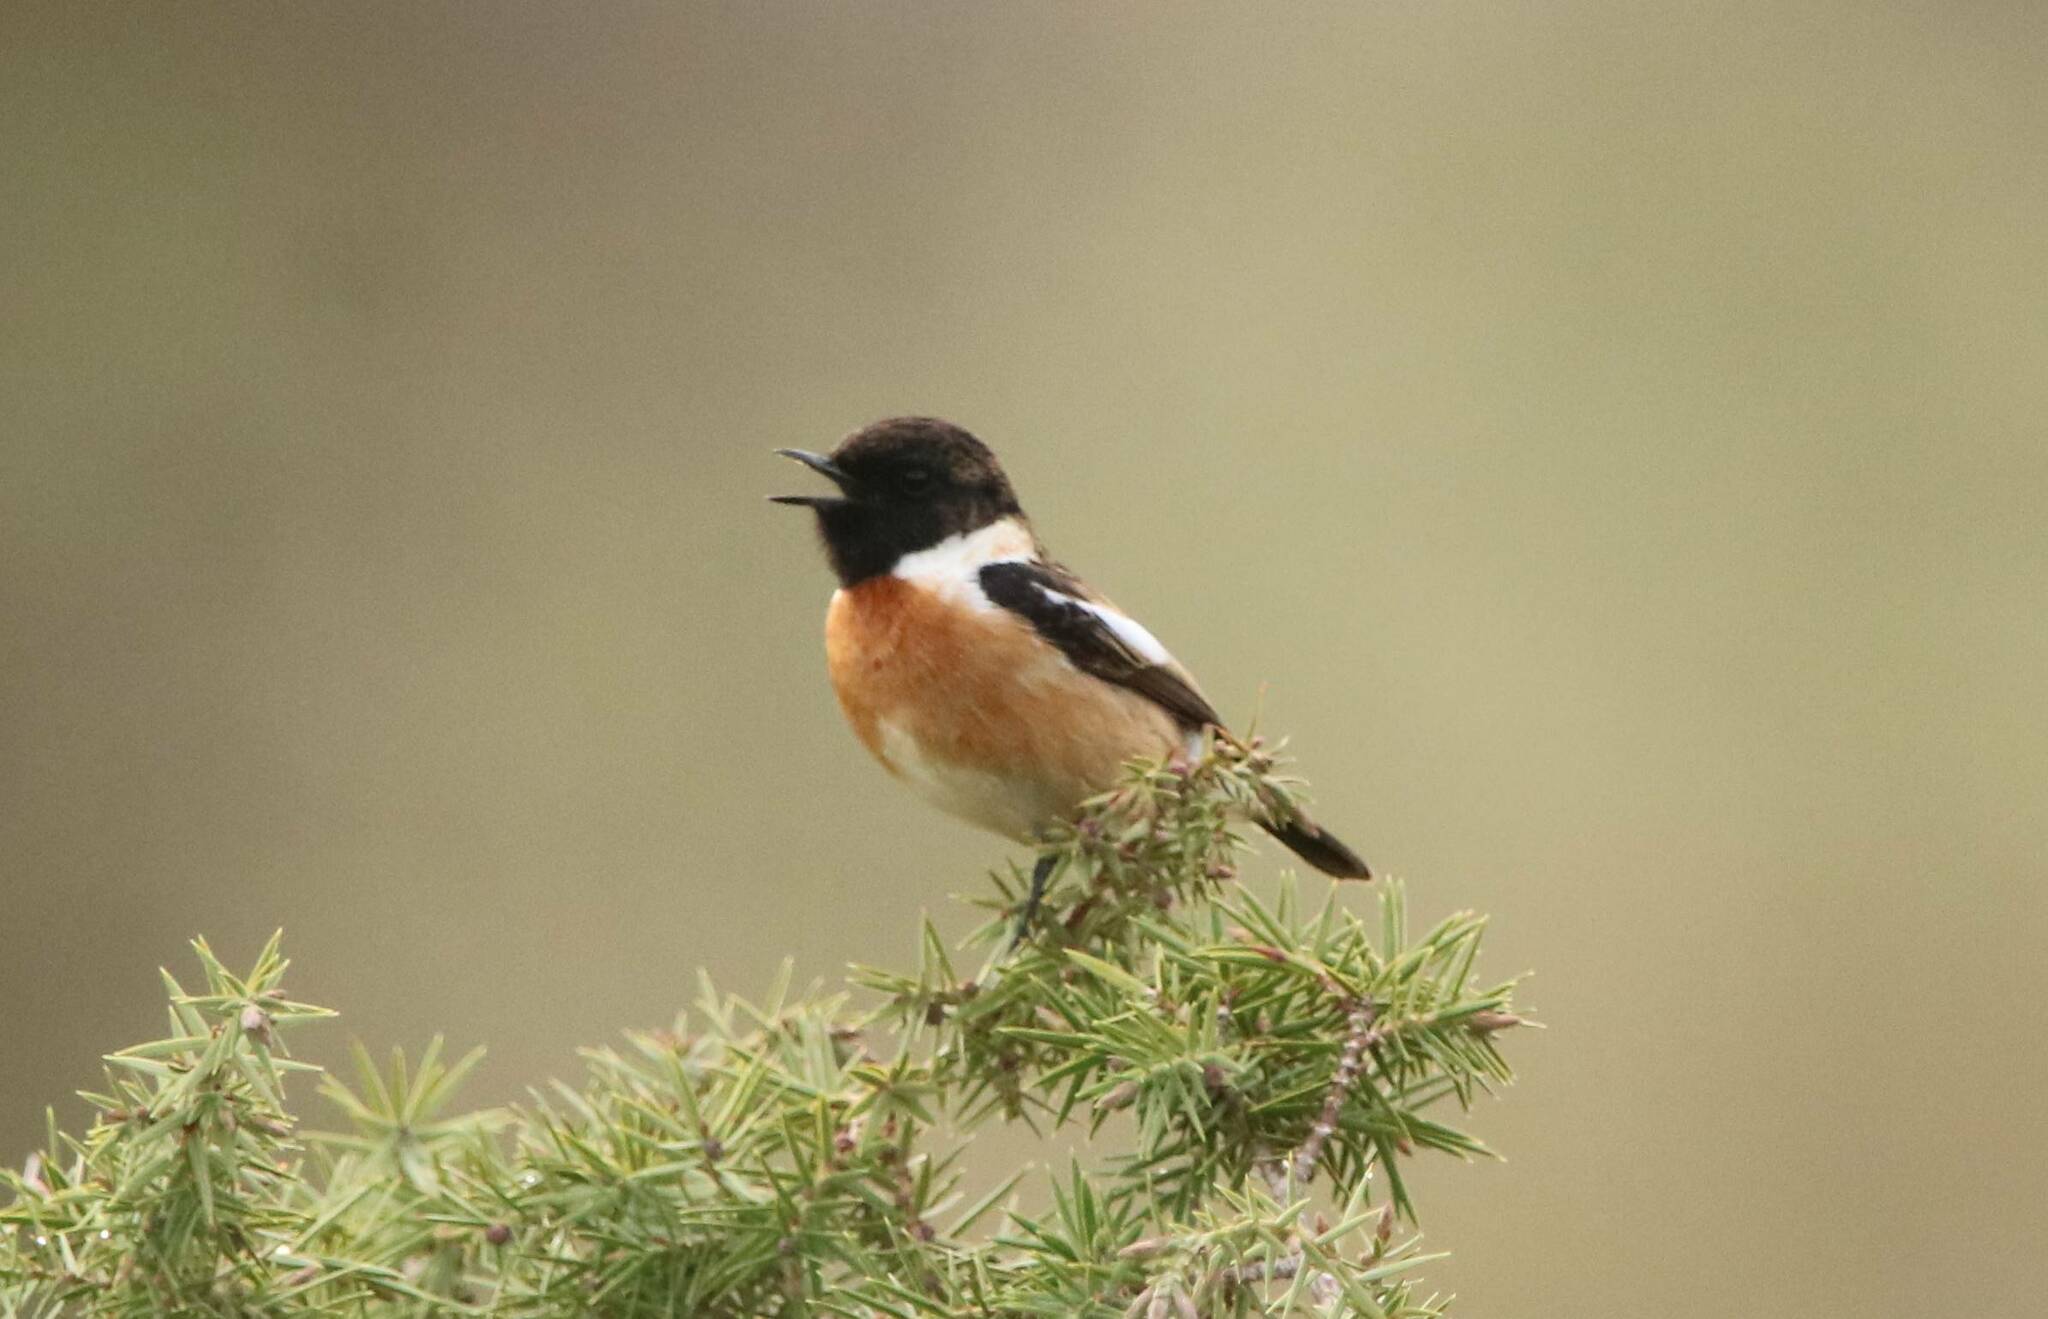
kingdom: Animalia
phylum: Chordata
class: Aves
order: Passeriformes
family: Muscicapidae
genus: Saxicola
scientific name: Saxicola rubicola
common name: European stonechat
